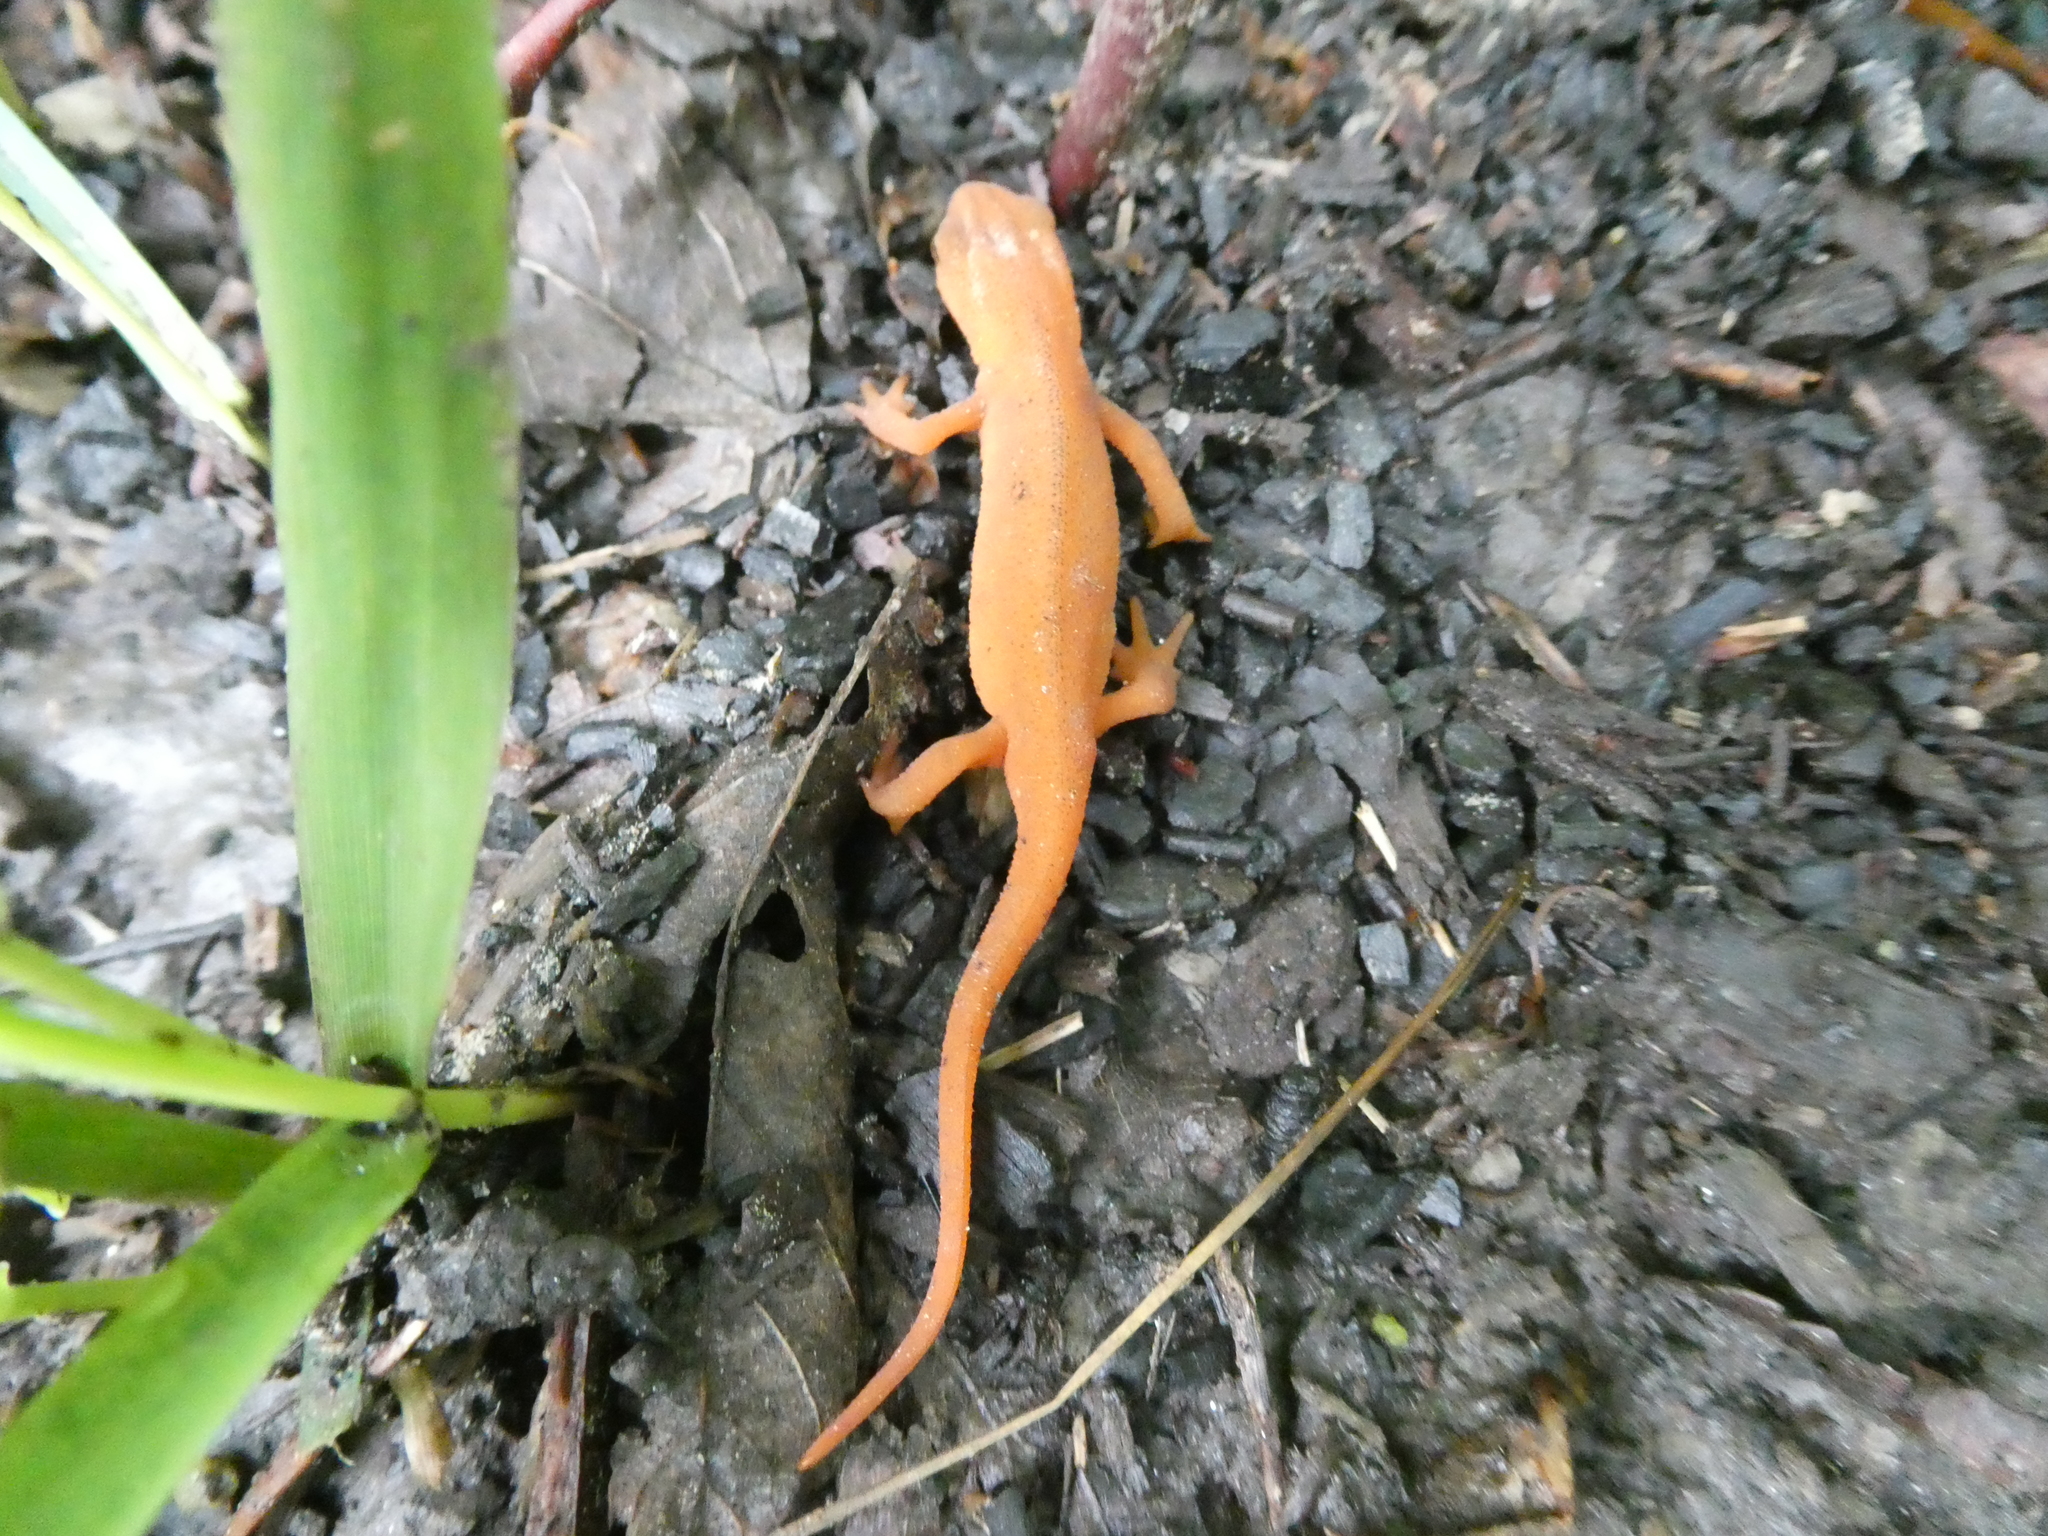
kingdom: Animalia
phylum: Chordata
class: Amphibia
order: Caudata
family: Salamandridae
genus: Notophthalmus
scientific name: Notophthalmus viridescens
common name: Eastern newt
